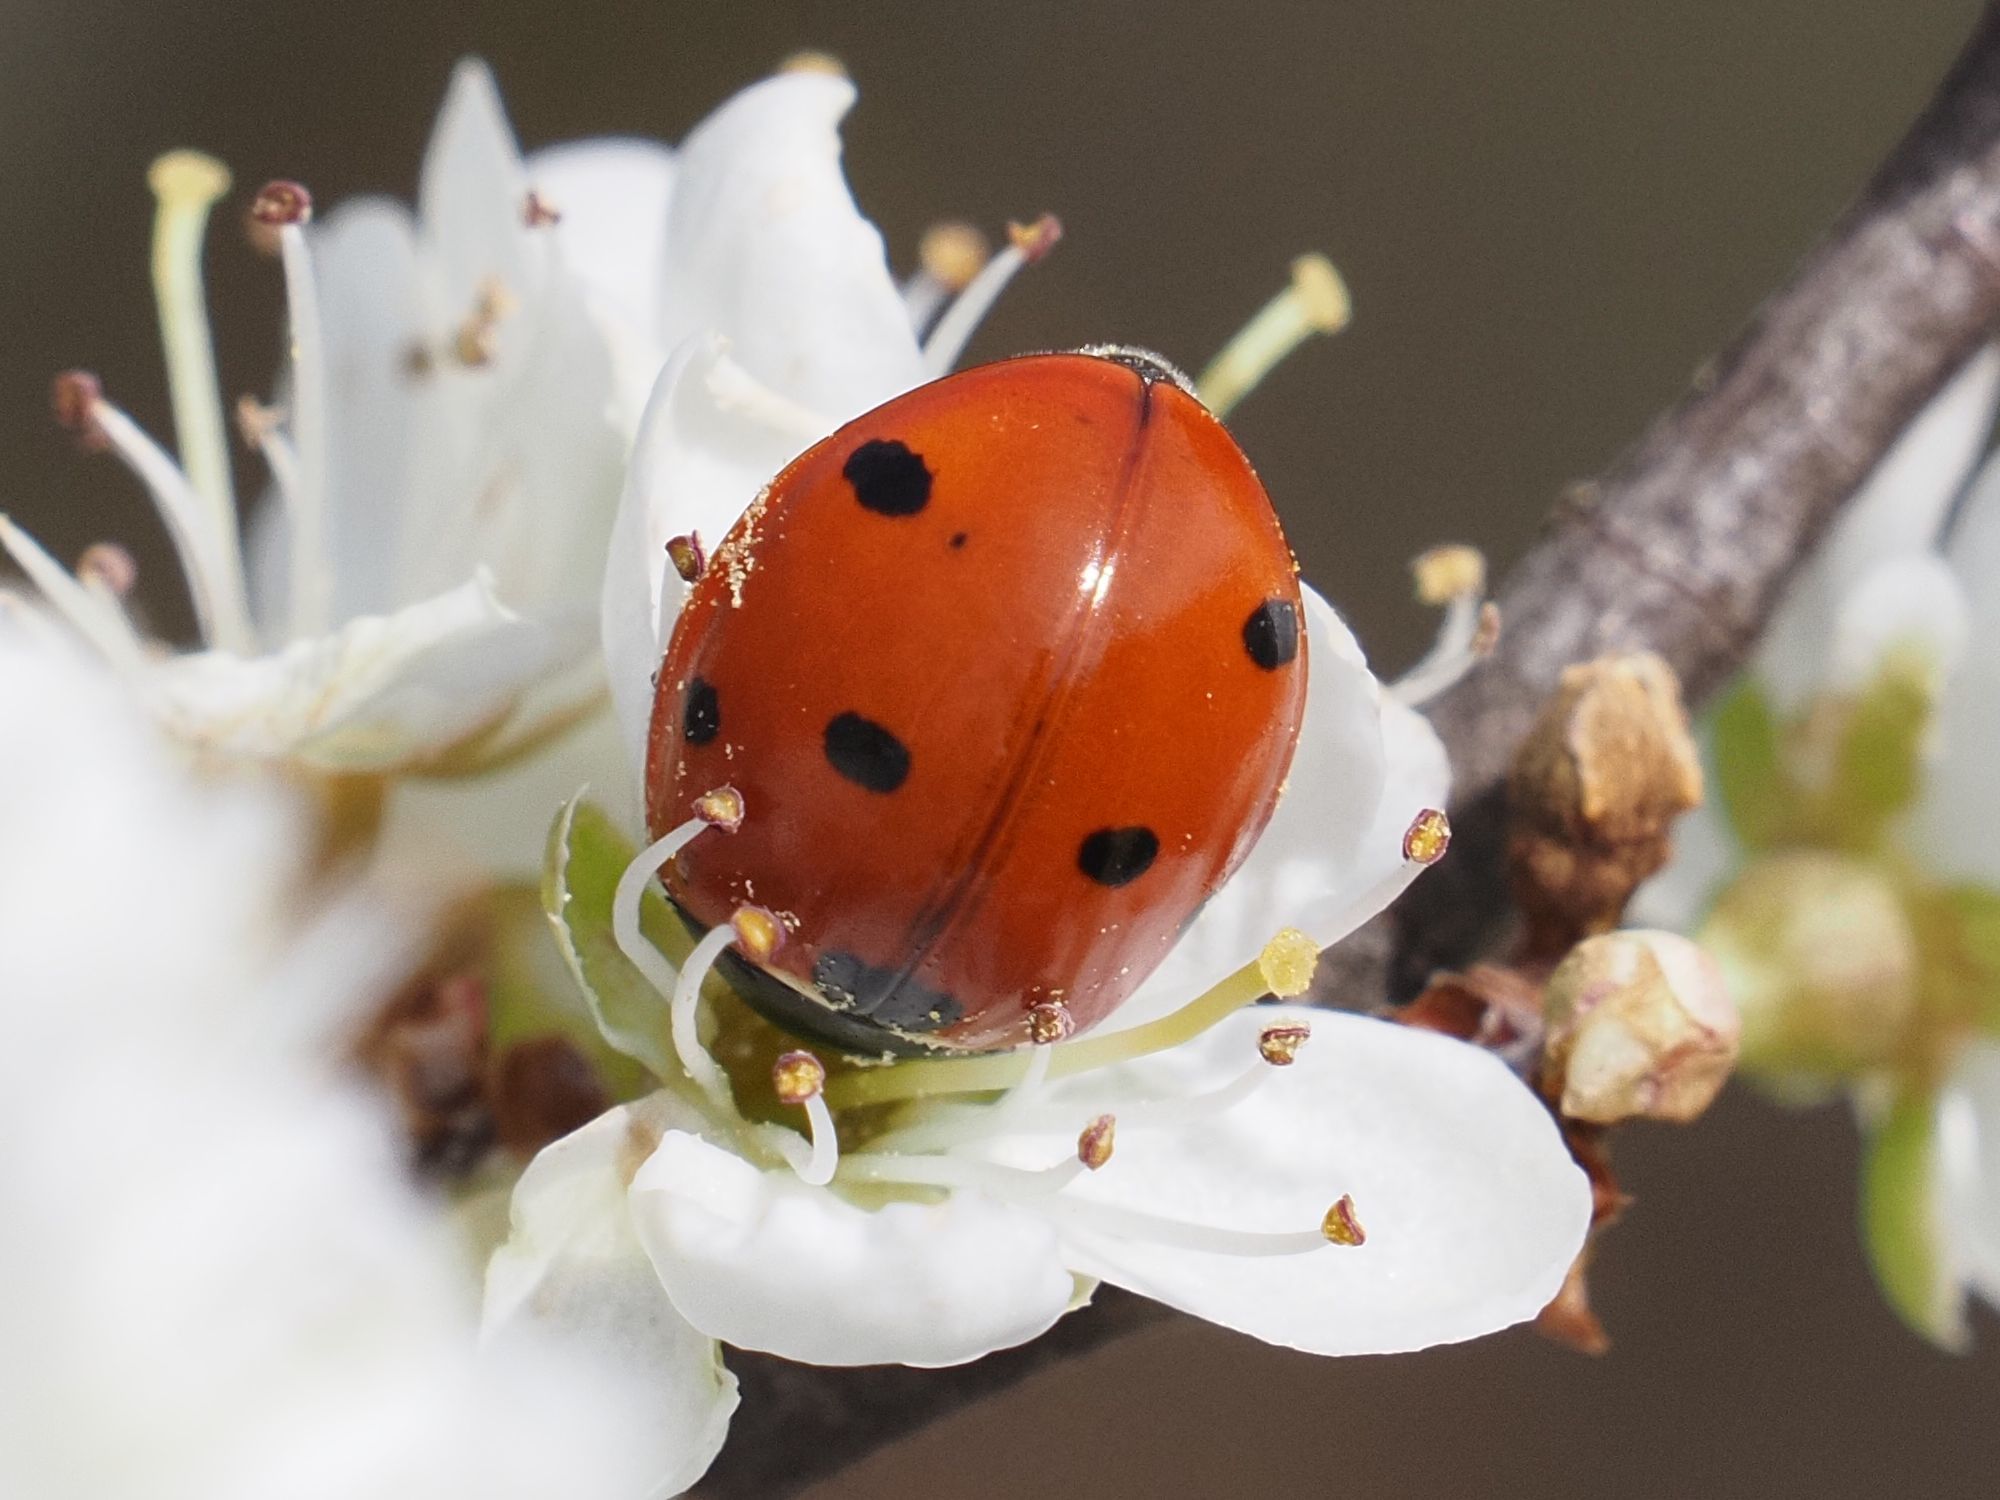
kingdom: Animalia
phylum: Arthropoda
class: Insecta
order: Coleoptera
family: Coccinellidae
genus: Coccinella
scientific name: Coccinella septempunctata
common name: Sevenspotted lady beetle
